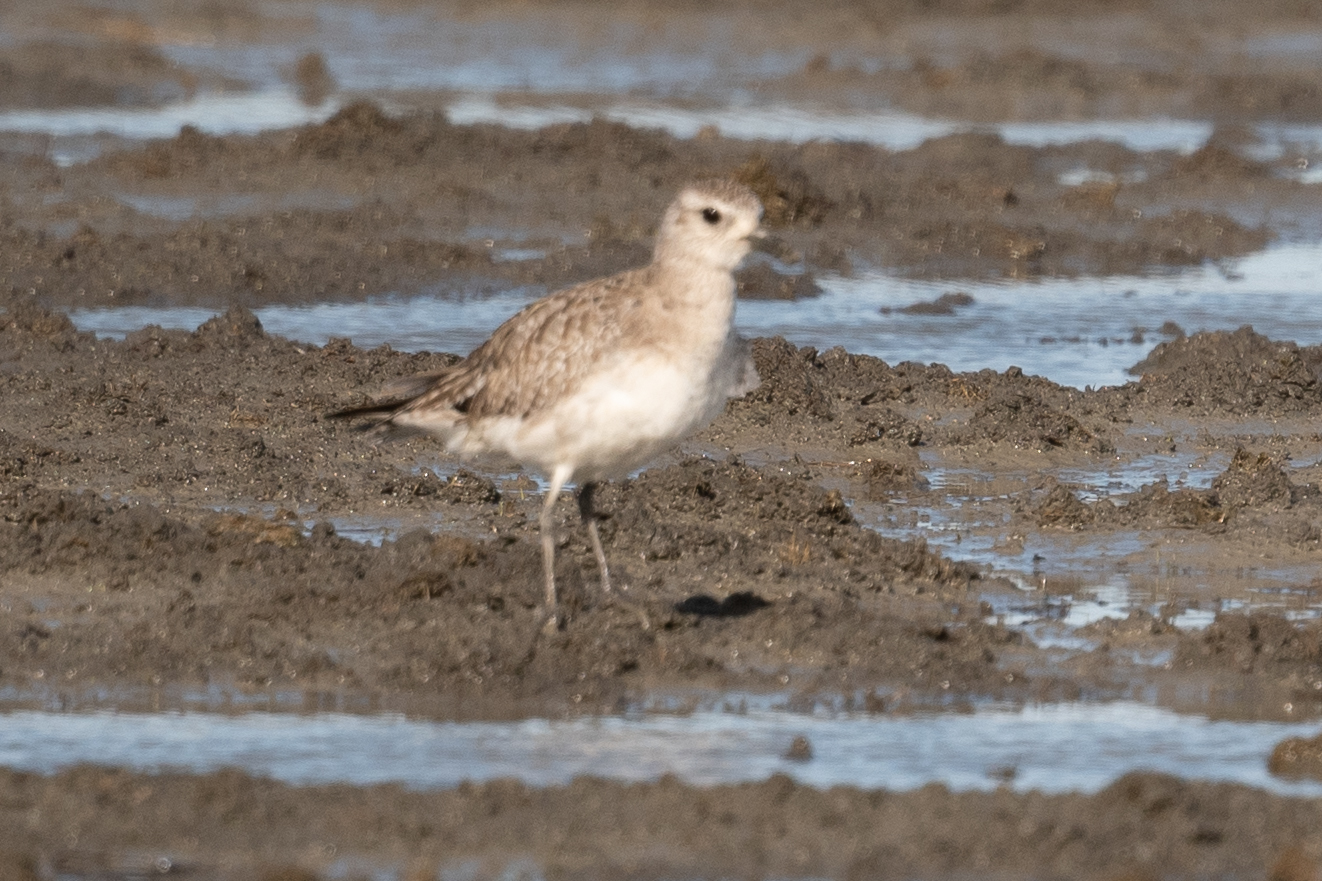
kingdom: Animalia
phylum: Chordata
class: Aves
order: Charadriiformes
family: Charadriidae
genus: Pluvialis
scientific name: Pluvialis squatarola
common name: Grey plover
